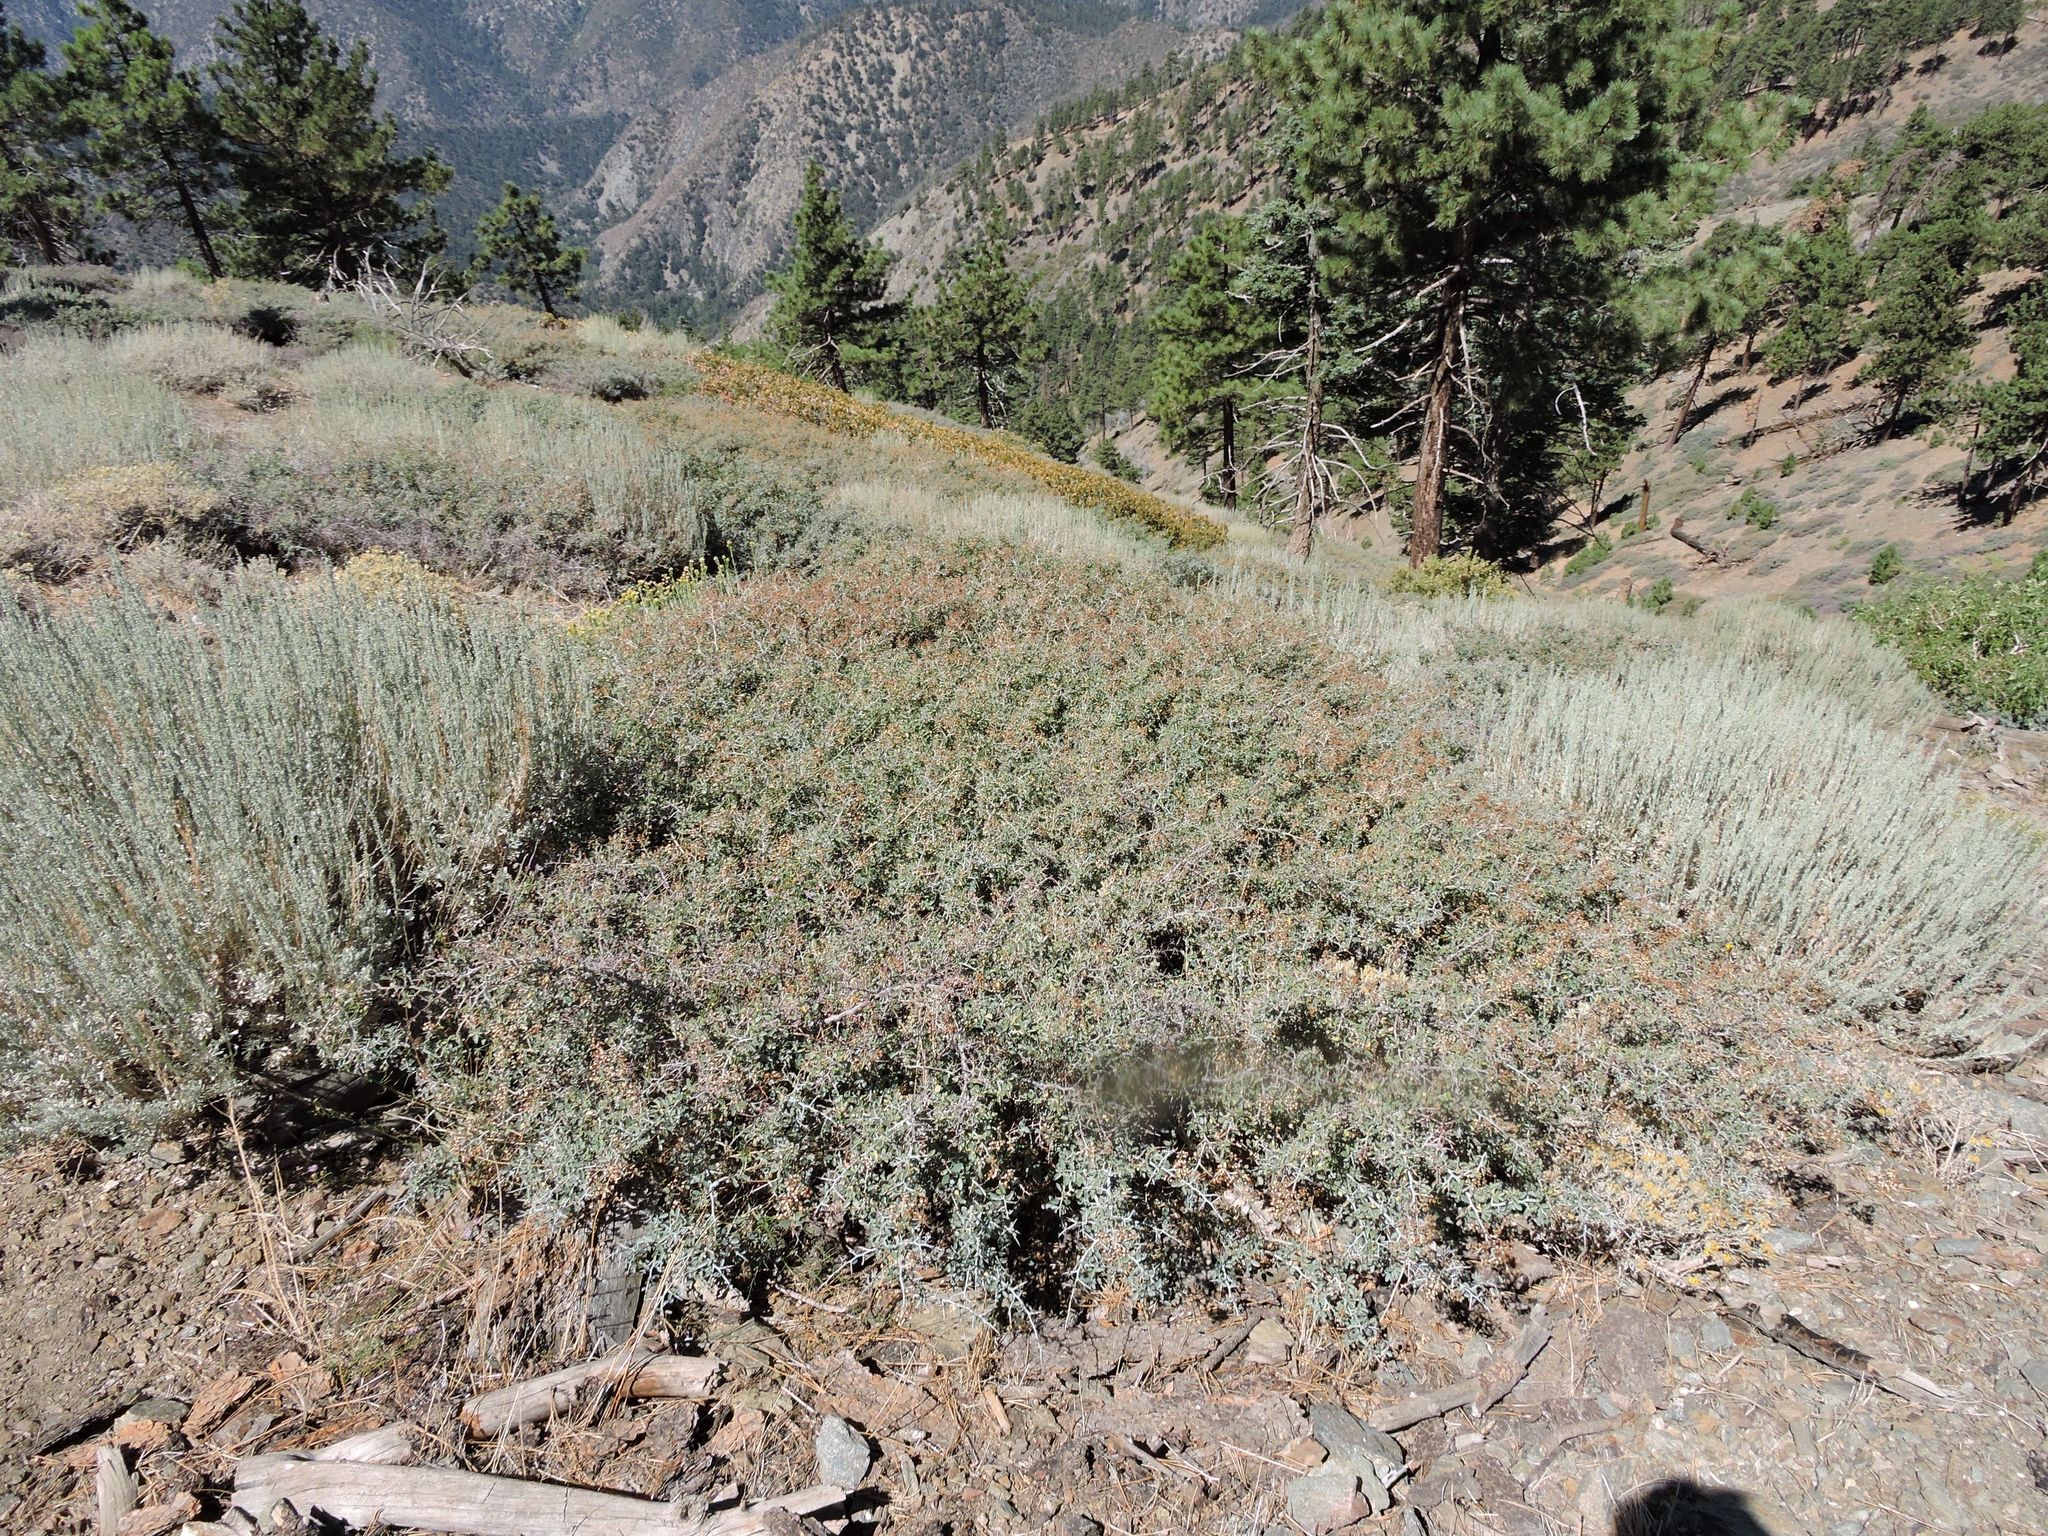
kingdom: Plantae
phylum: Tracheophyta
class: Magnoliopsida
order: Rosales
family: Rhamnaceae
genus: Ceanothus
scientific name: Ceanothus cordulatus
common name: Mountain whitethorn
